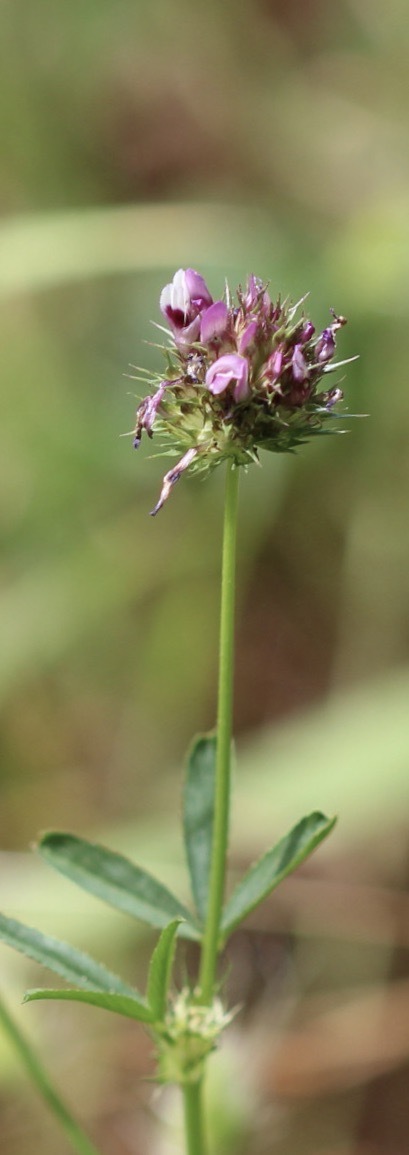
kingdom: Plantae
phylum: Tracheophyta
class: Magnoliopsida
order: Fabales
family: Fabaceae
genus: Trifolium
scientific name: Trifolium willdenovii
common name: Tomcat clover
